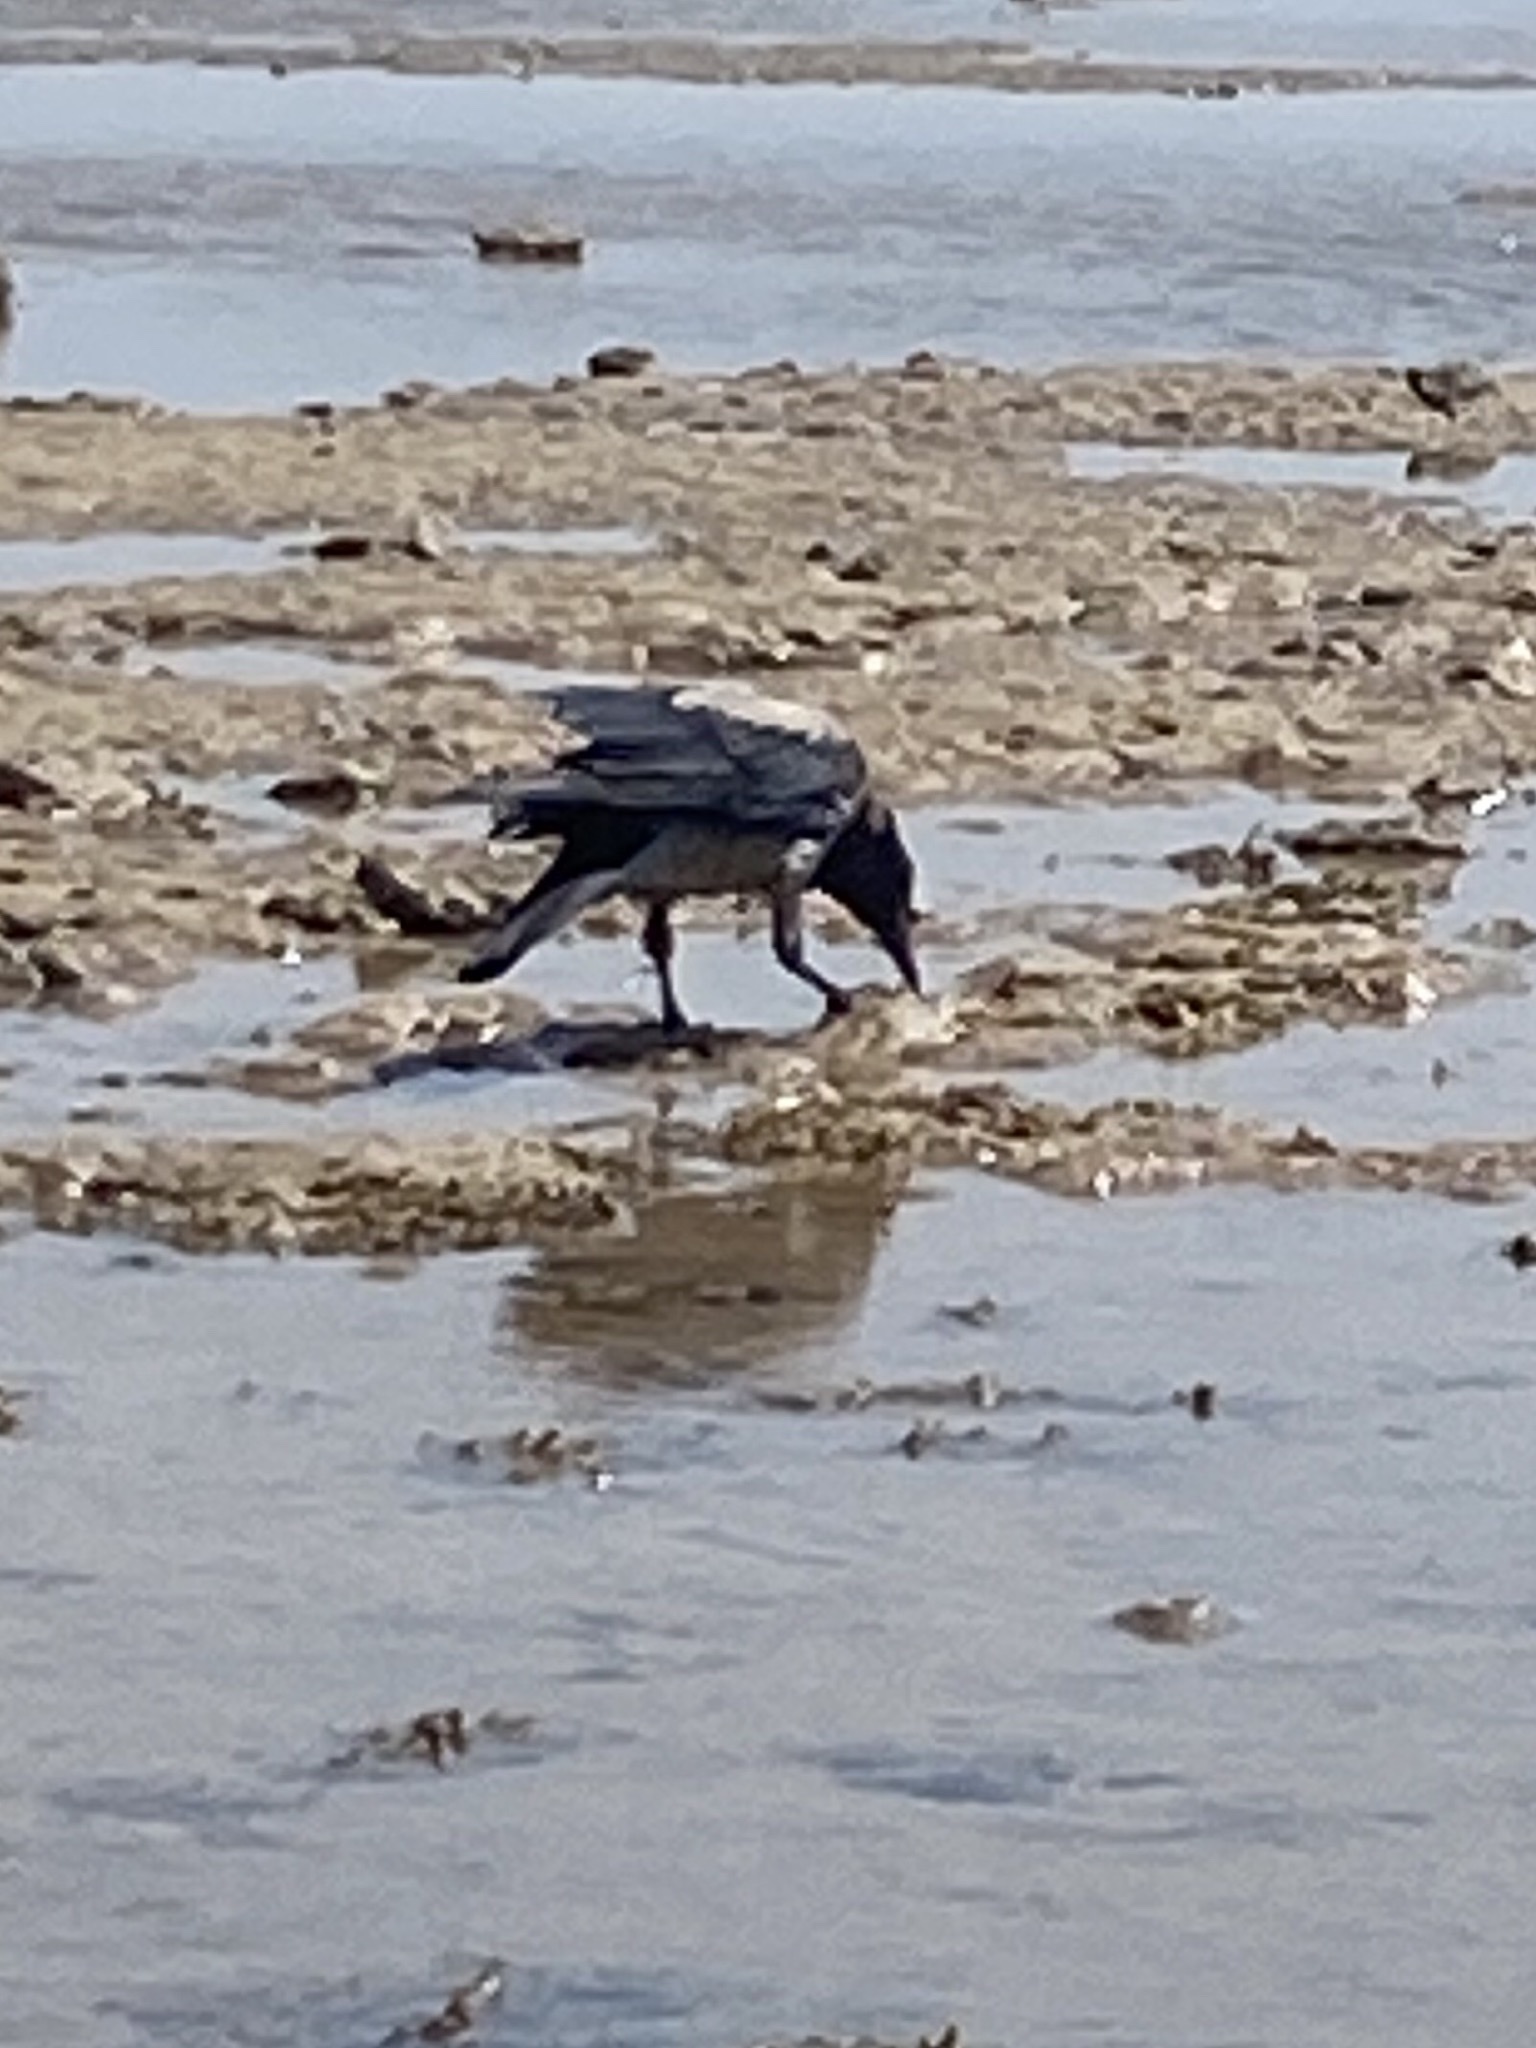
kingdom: Animalia
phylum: Chordata
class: Aves
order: Passeriformes
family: Corvidae
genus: Corvus
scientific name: Corvus cornix
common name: Hooded crow
